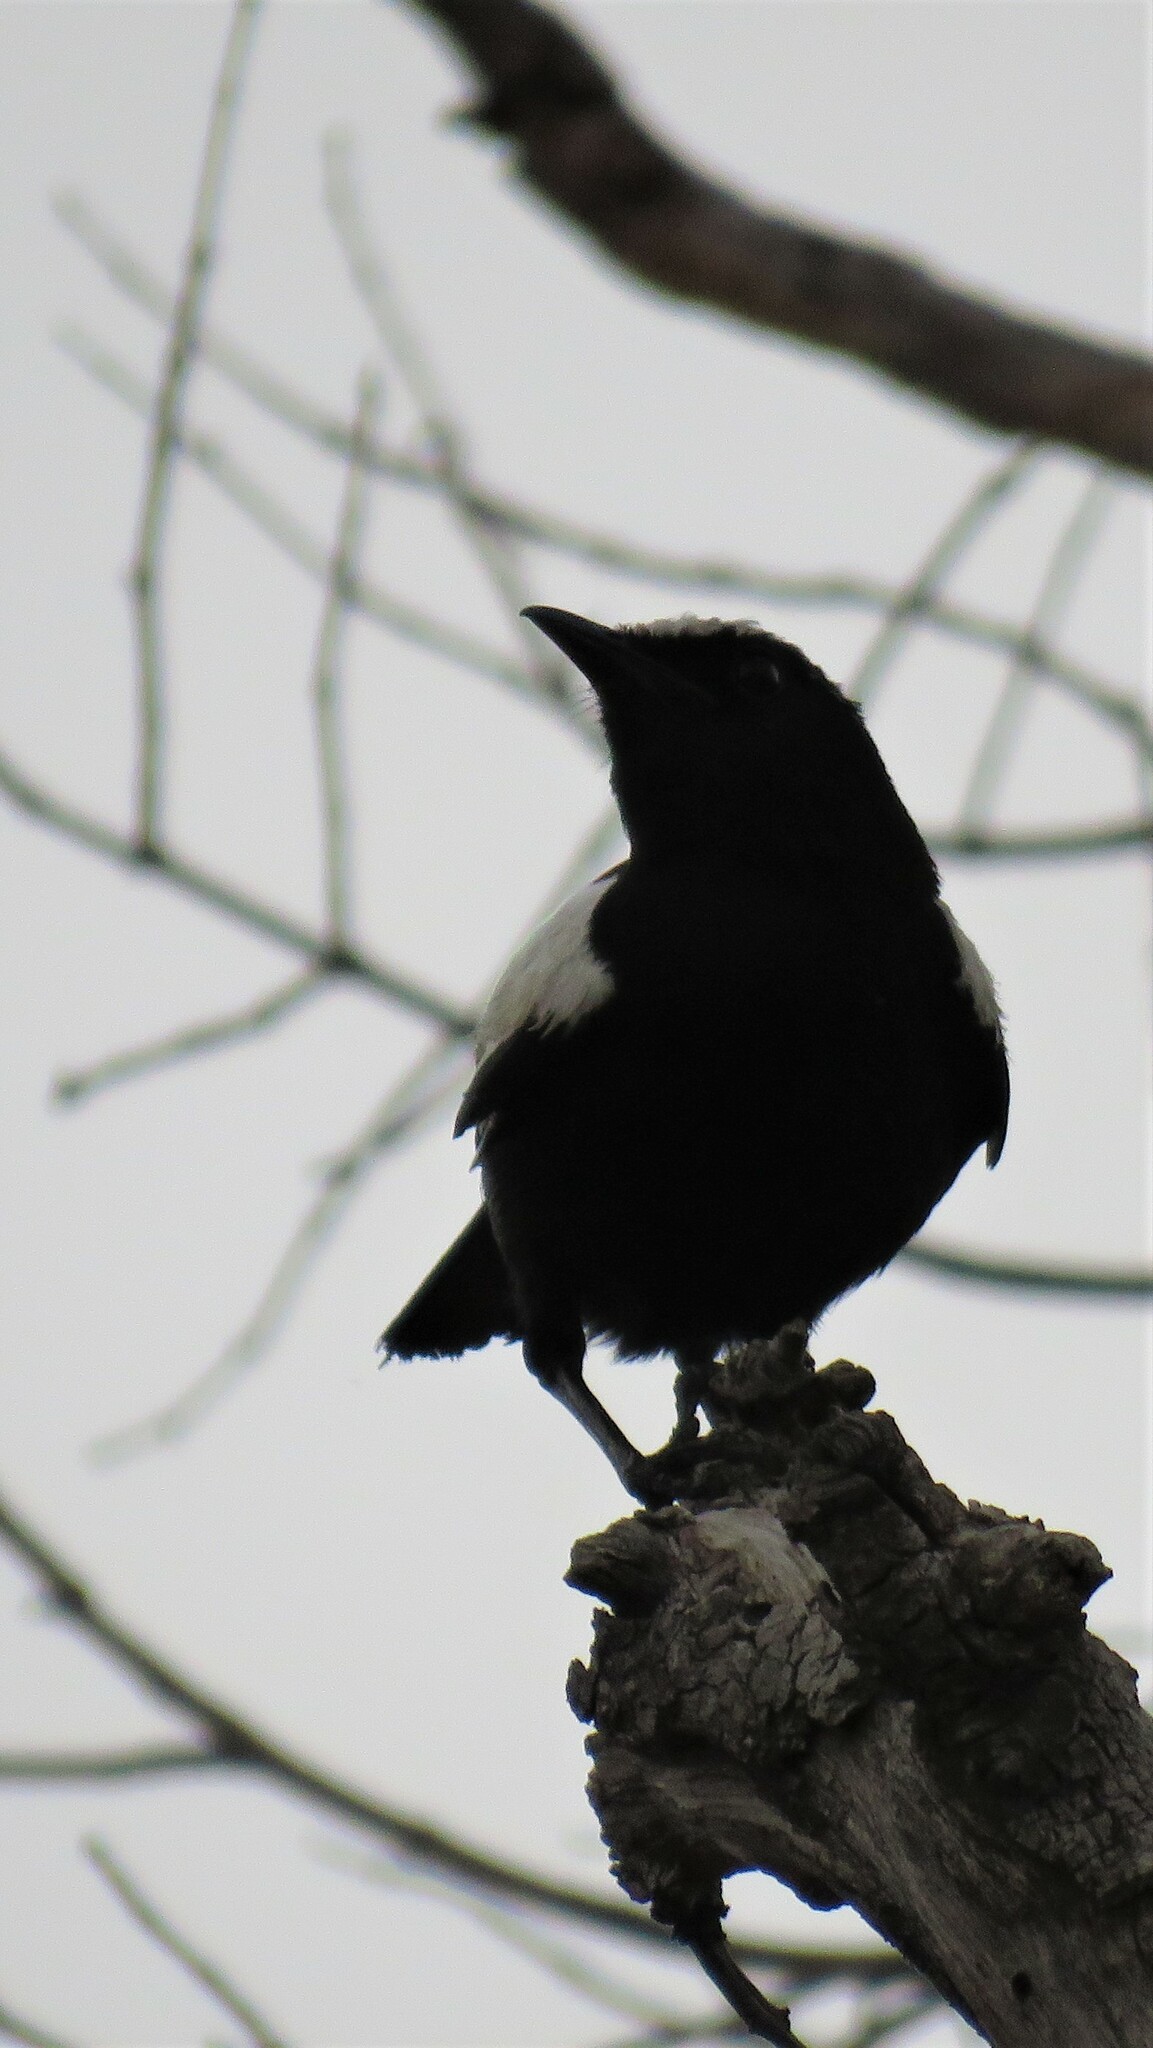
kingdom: Animalia
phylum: Chordata
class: Aves
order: Passeriformes
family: Muscicapidae
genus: Pentholaea
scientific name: Pentholaea arnotti
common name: Arnot's chat
